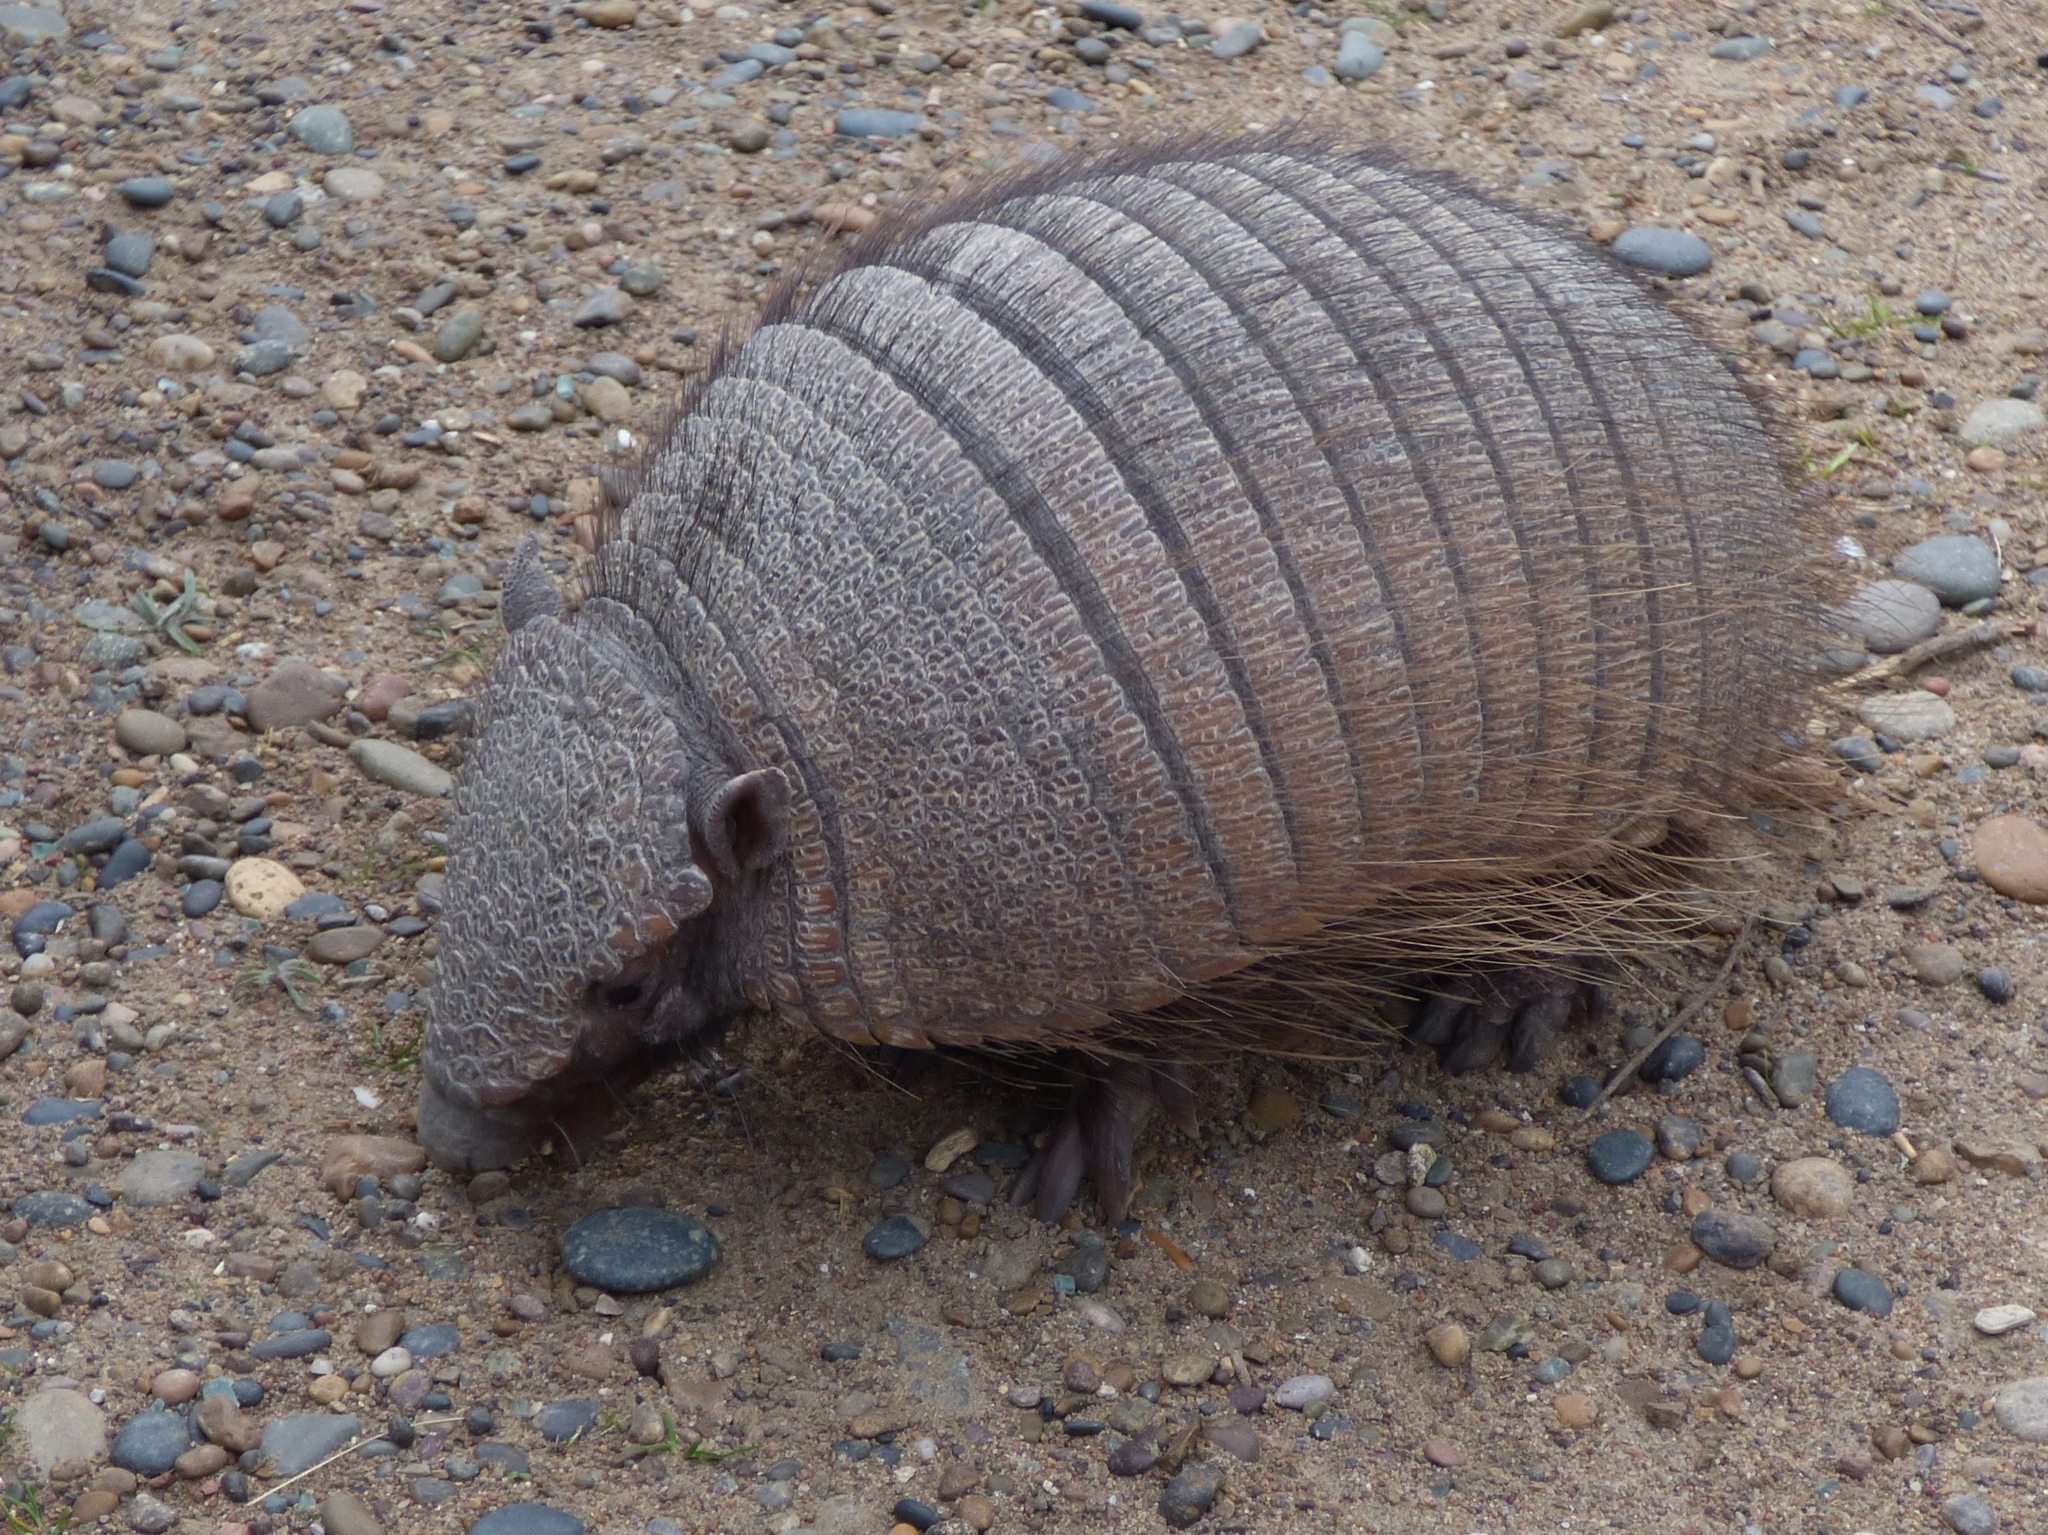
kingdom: Animalia
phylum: Chordata
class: Mammalia
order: Cingulata
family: Dasypodidae
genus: Chaetophractus
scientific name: Chaetophractus villosus
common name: Big hairy armadillo
